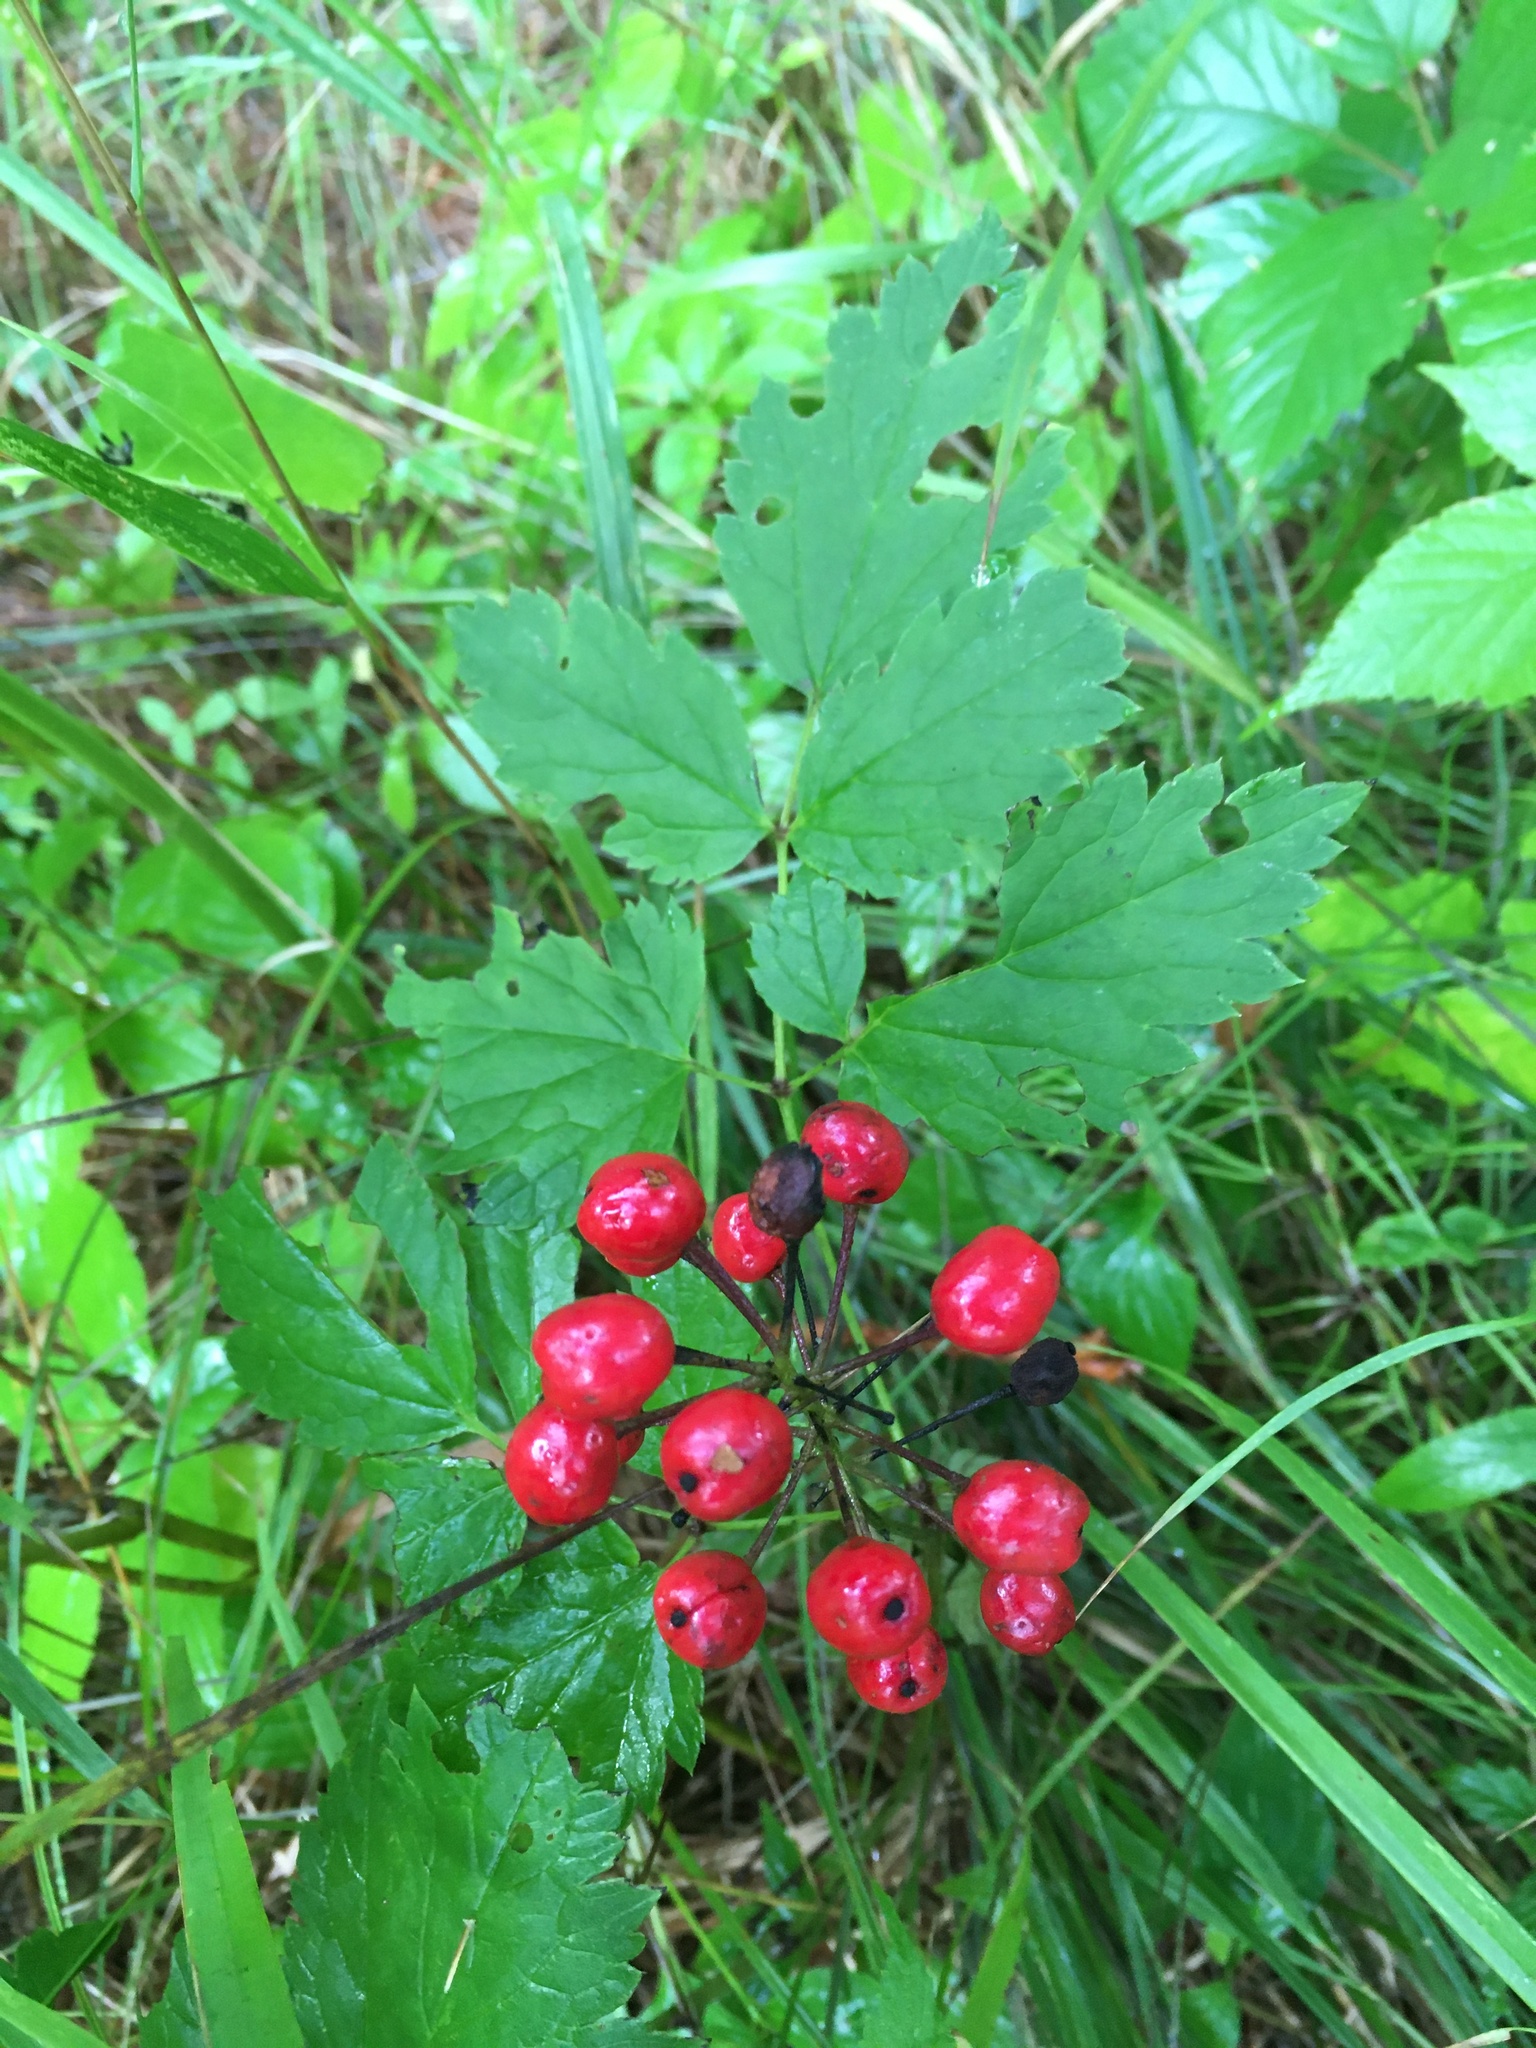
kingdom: Plantae
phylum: Tracheophyta
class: Magnoliopsida
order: Ranunculales
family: Ranunculaceae
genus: Actaea
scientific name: Actaea rubra
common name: Red baneberry
